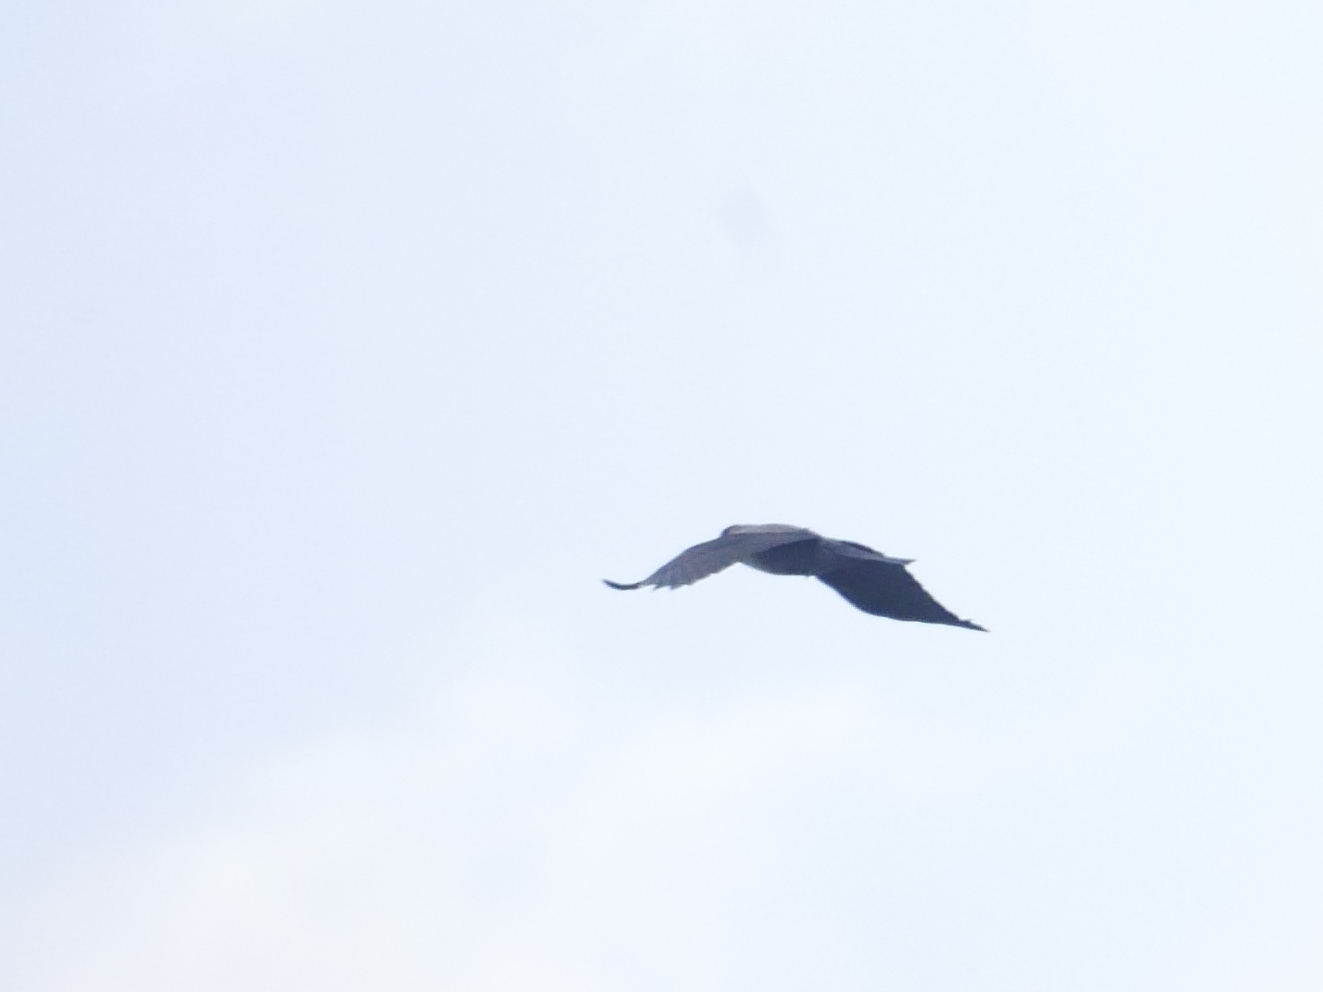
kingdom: Animalia
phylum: Chordata
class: Aves
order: Passeriformes
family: Corvidae
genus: Corvus
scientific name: Corvus cornix
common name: Hooded crow
